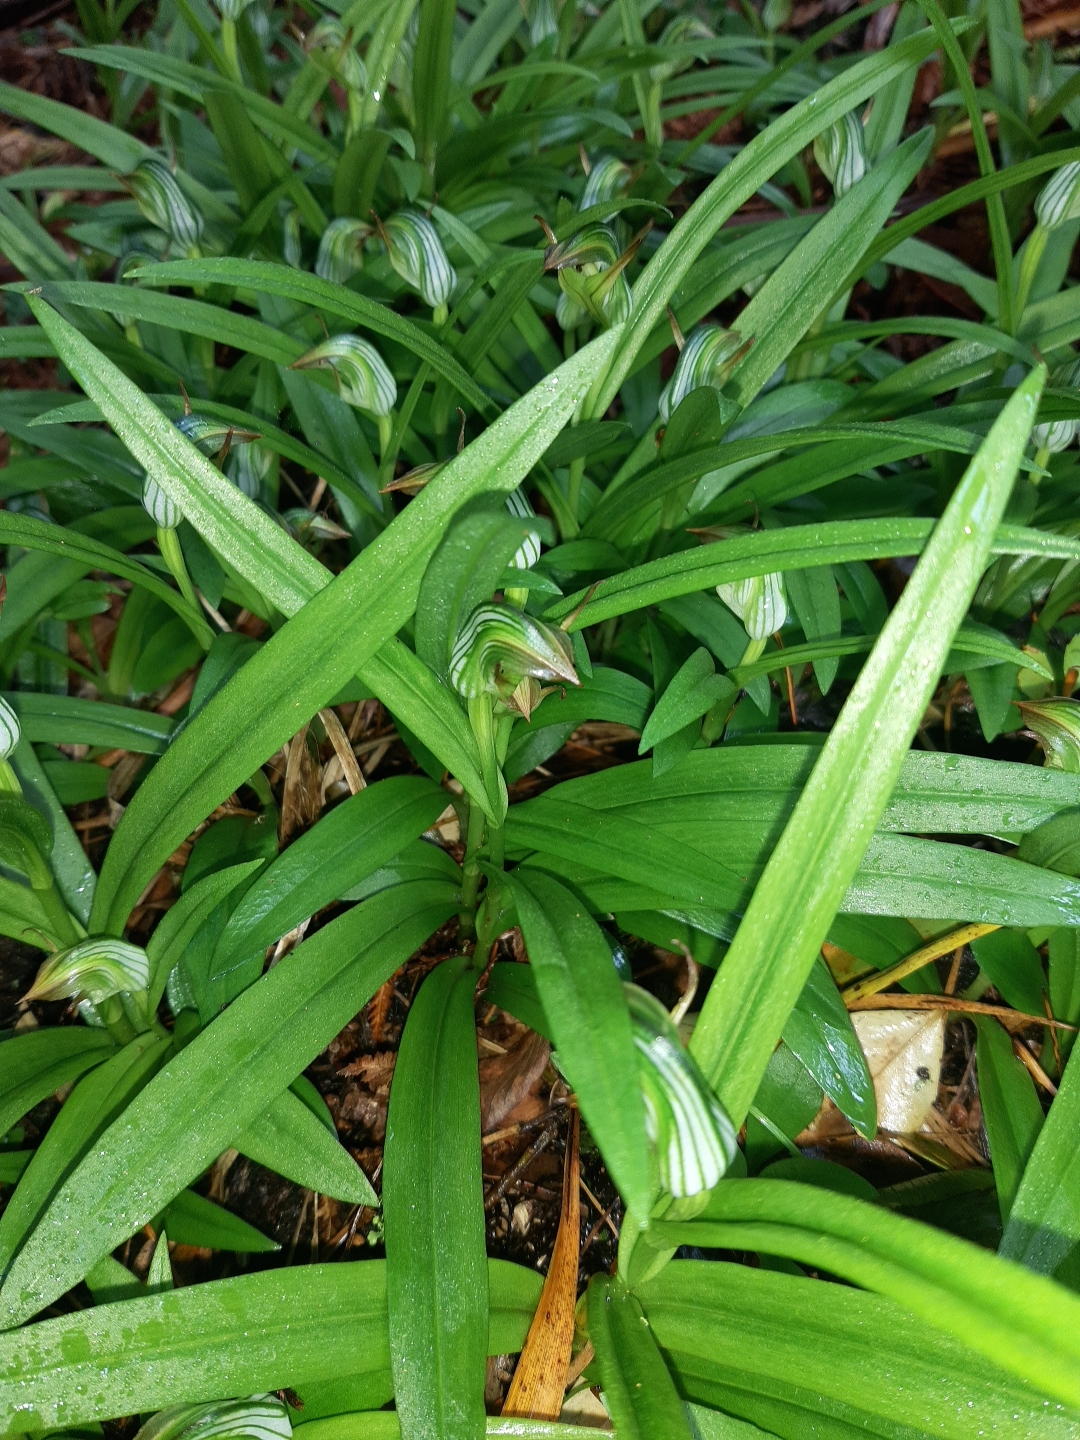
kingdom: Plantae
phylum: Tracheophyta
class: Liliopsida
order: Asparagales
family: Orchidaceae
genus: Pterostylis
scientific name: Pterostylis silvicultrix
